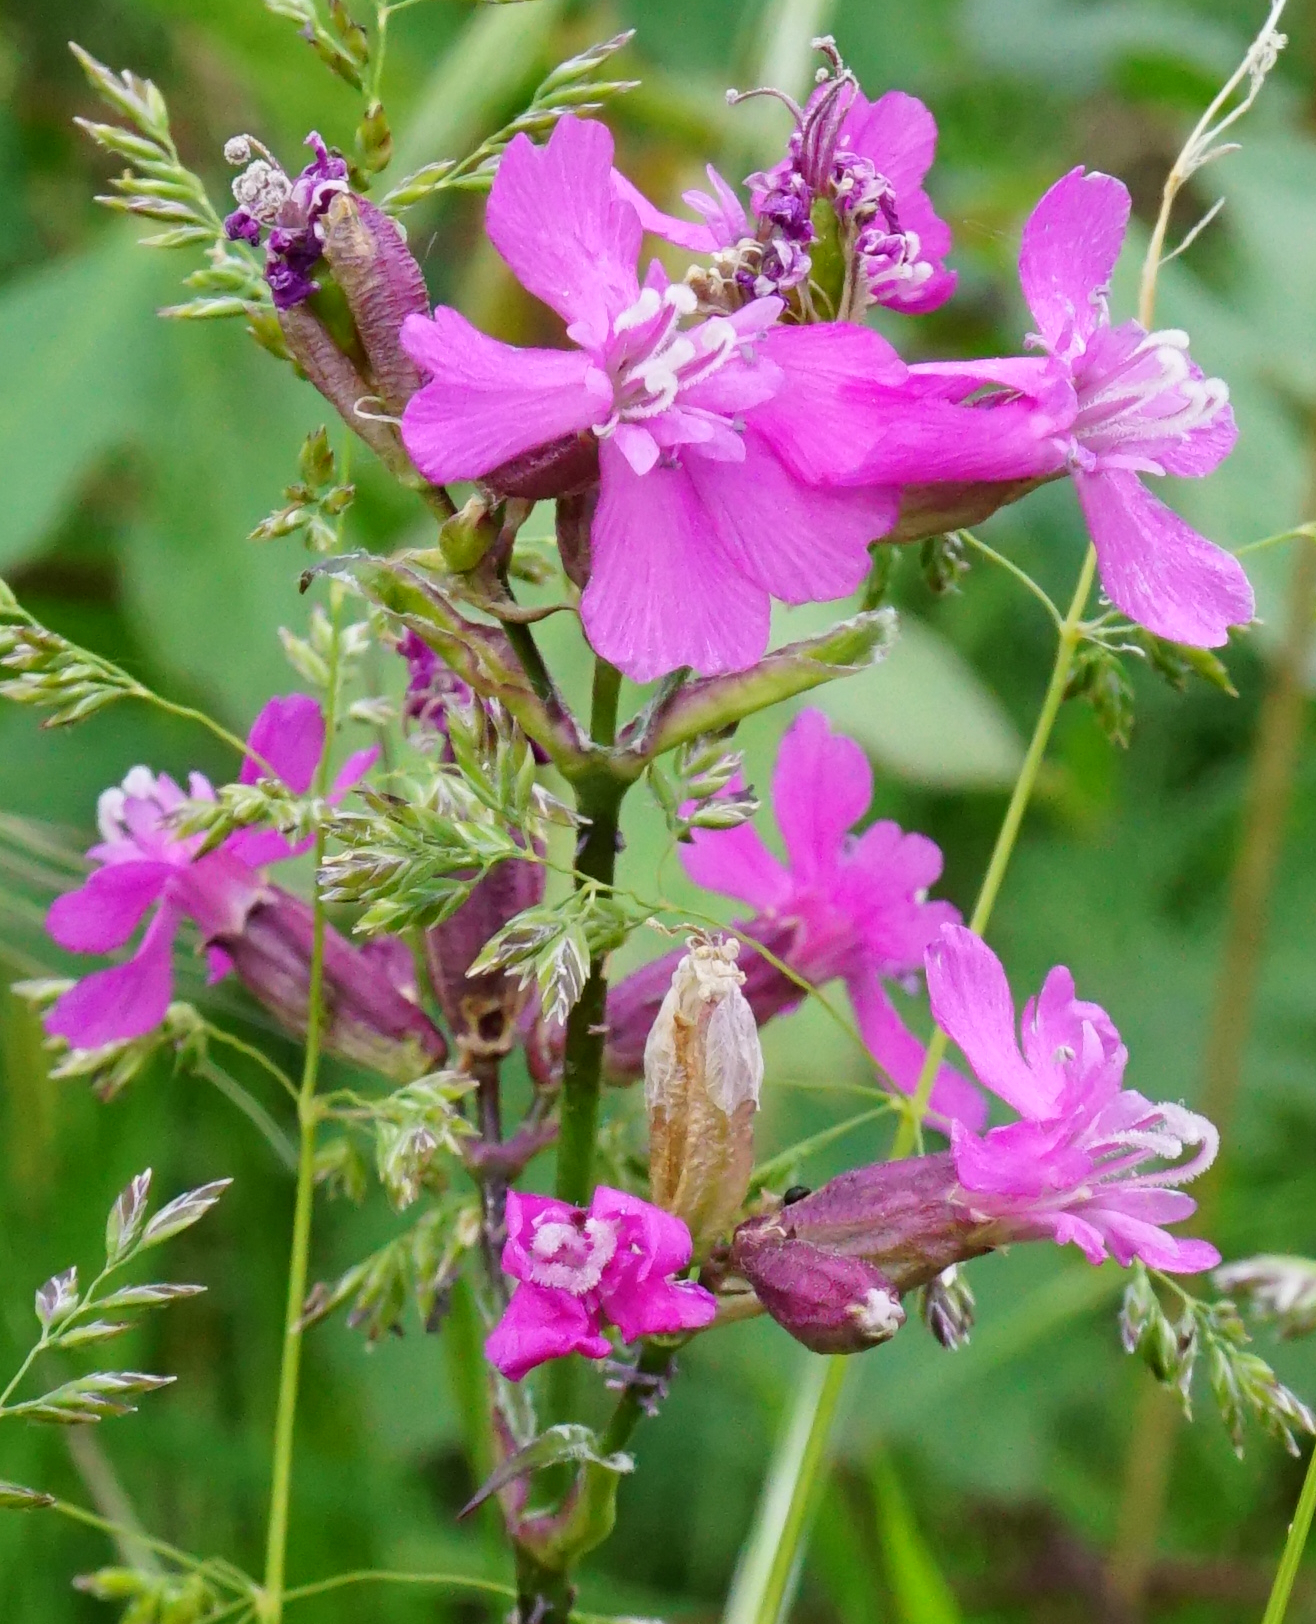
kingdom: Plantae
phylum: Tracheophyta
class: Magnoliopsida
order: Caryophyllales
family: Caryophyllaceae
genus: Viscaria
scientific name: Viscaria vulgaris
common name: Clammy campion
